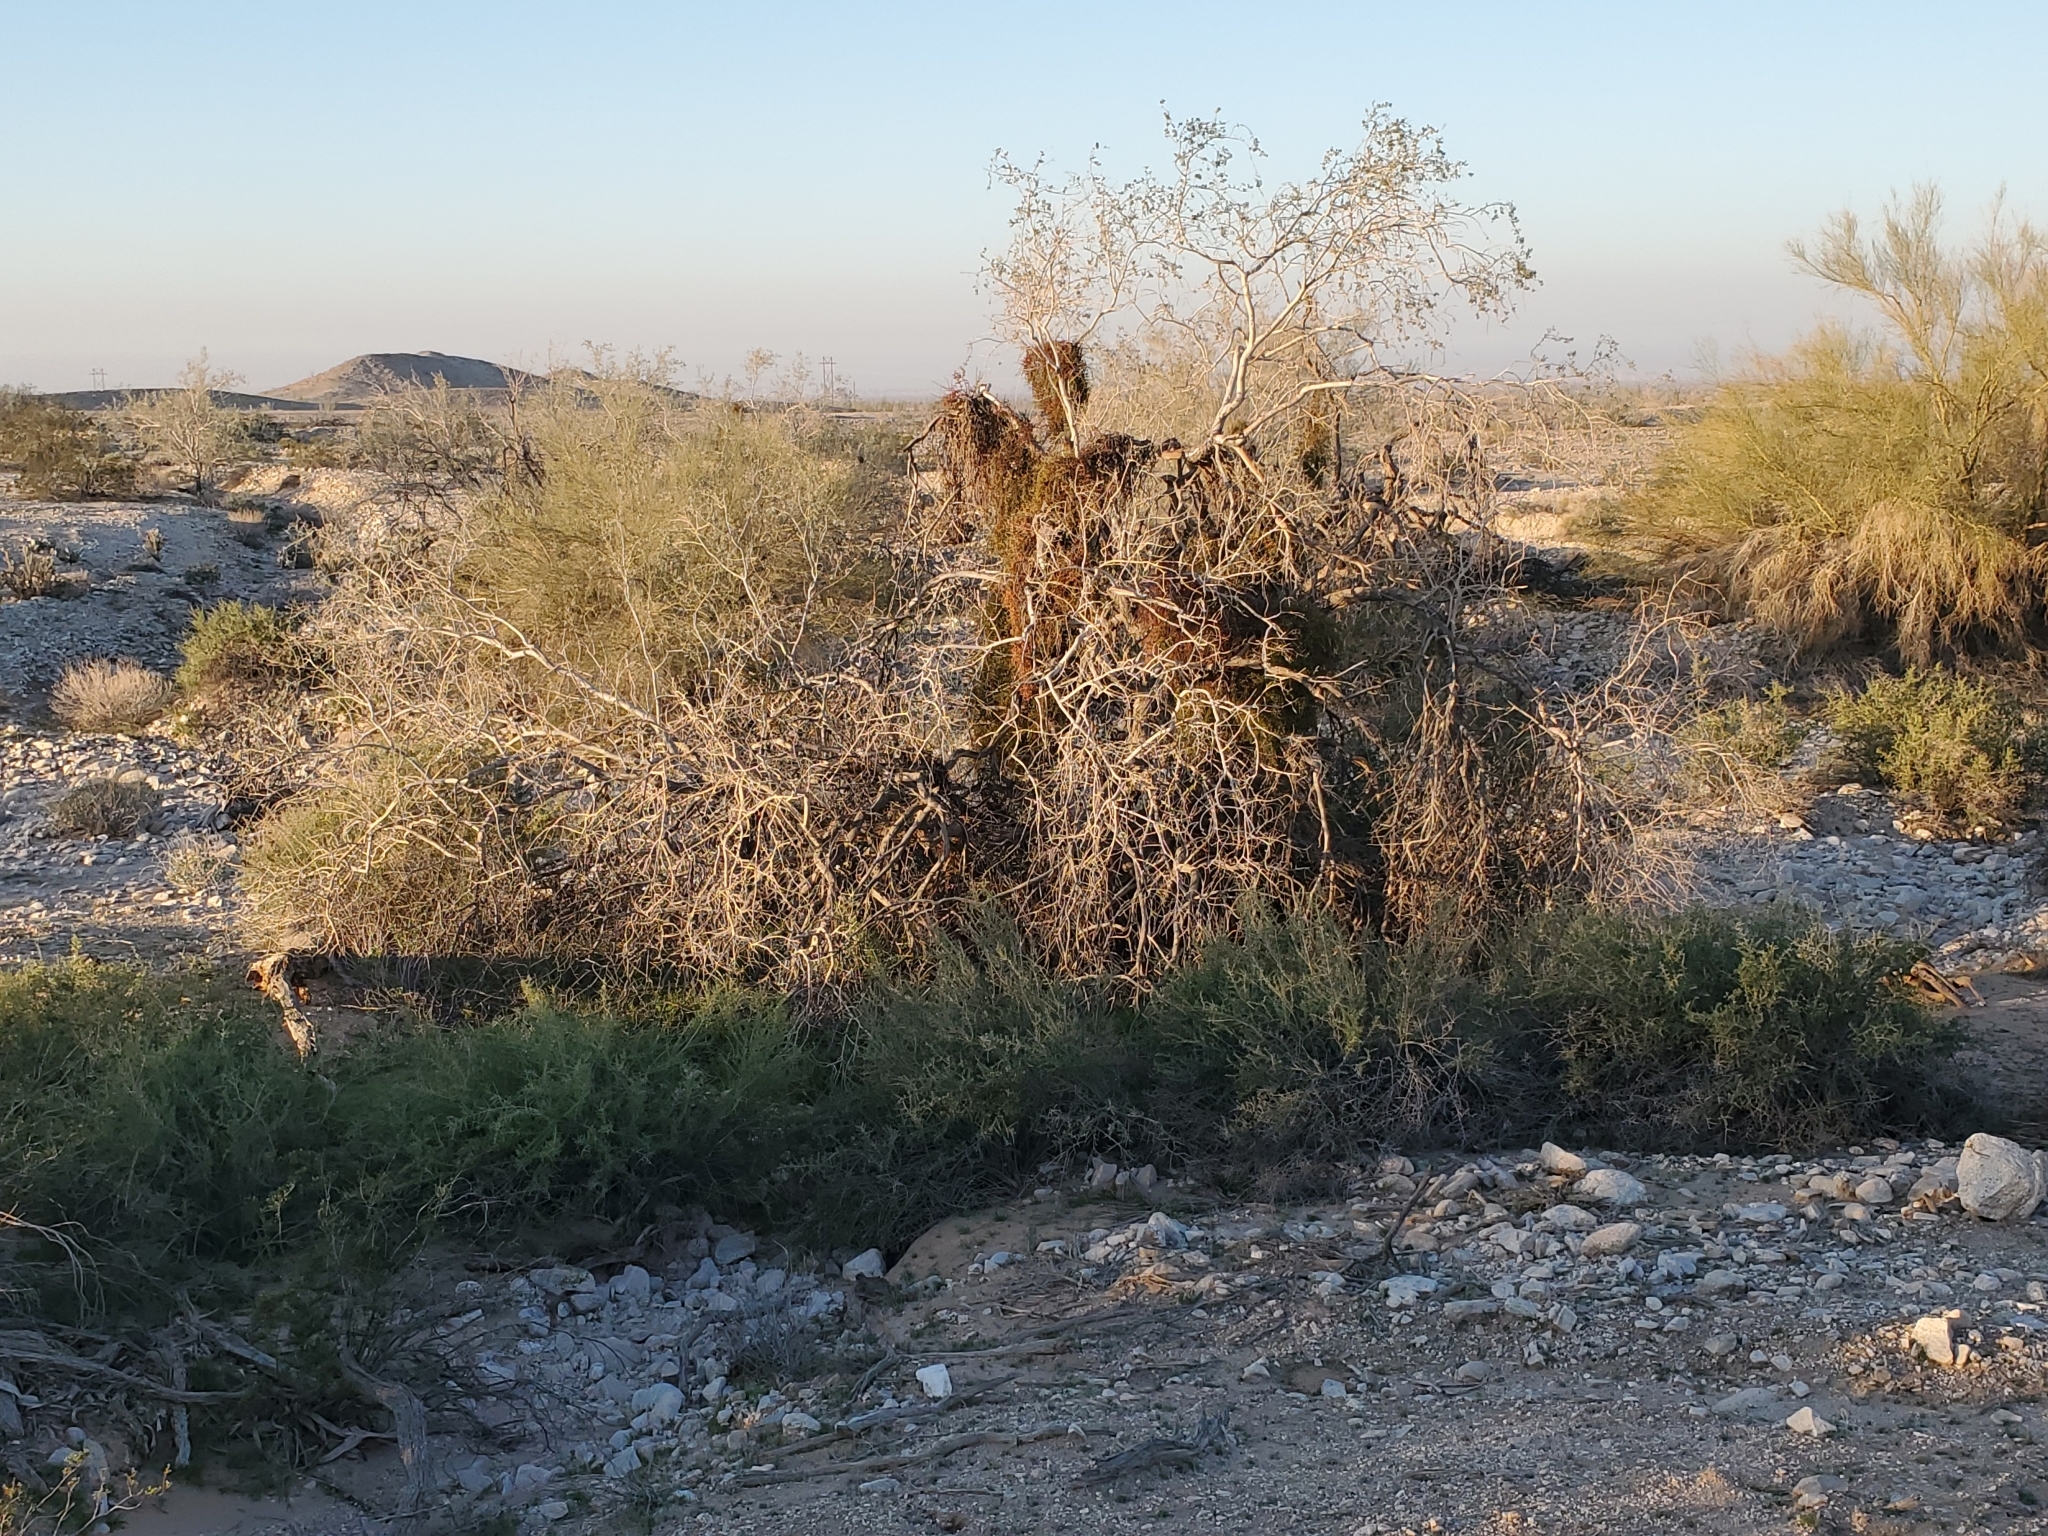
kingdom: Plantae
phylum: Tracheophyta
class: Magnoliopsida
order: Fabales
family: Fabaceae
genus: Olneya
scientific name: Olneya tesota
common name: Desert ironwood
